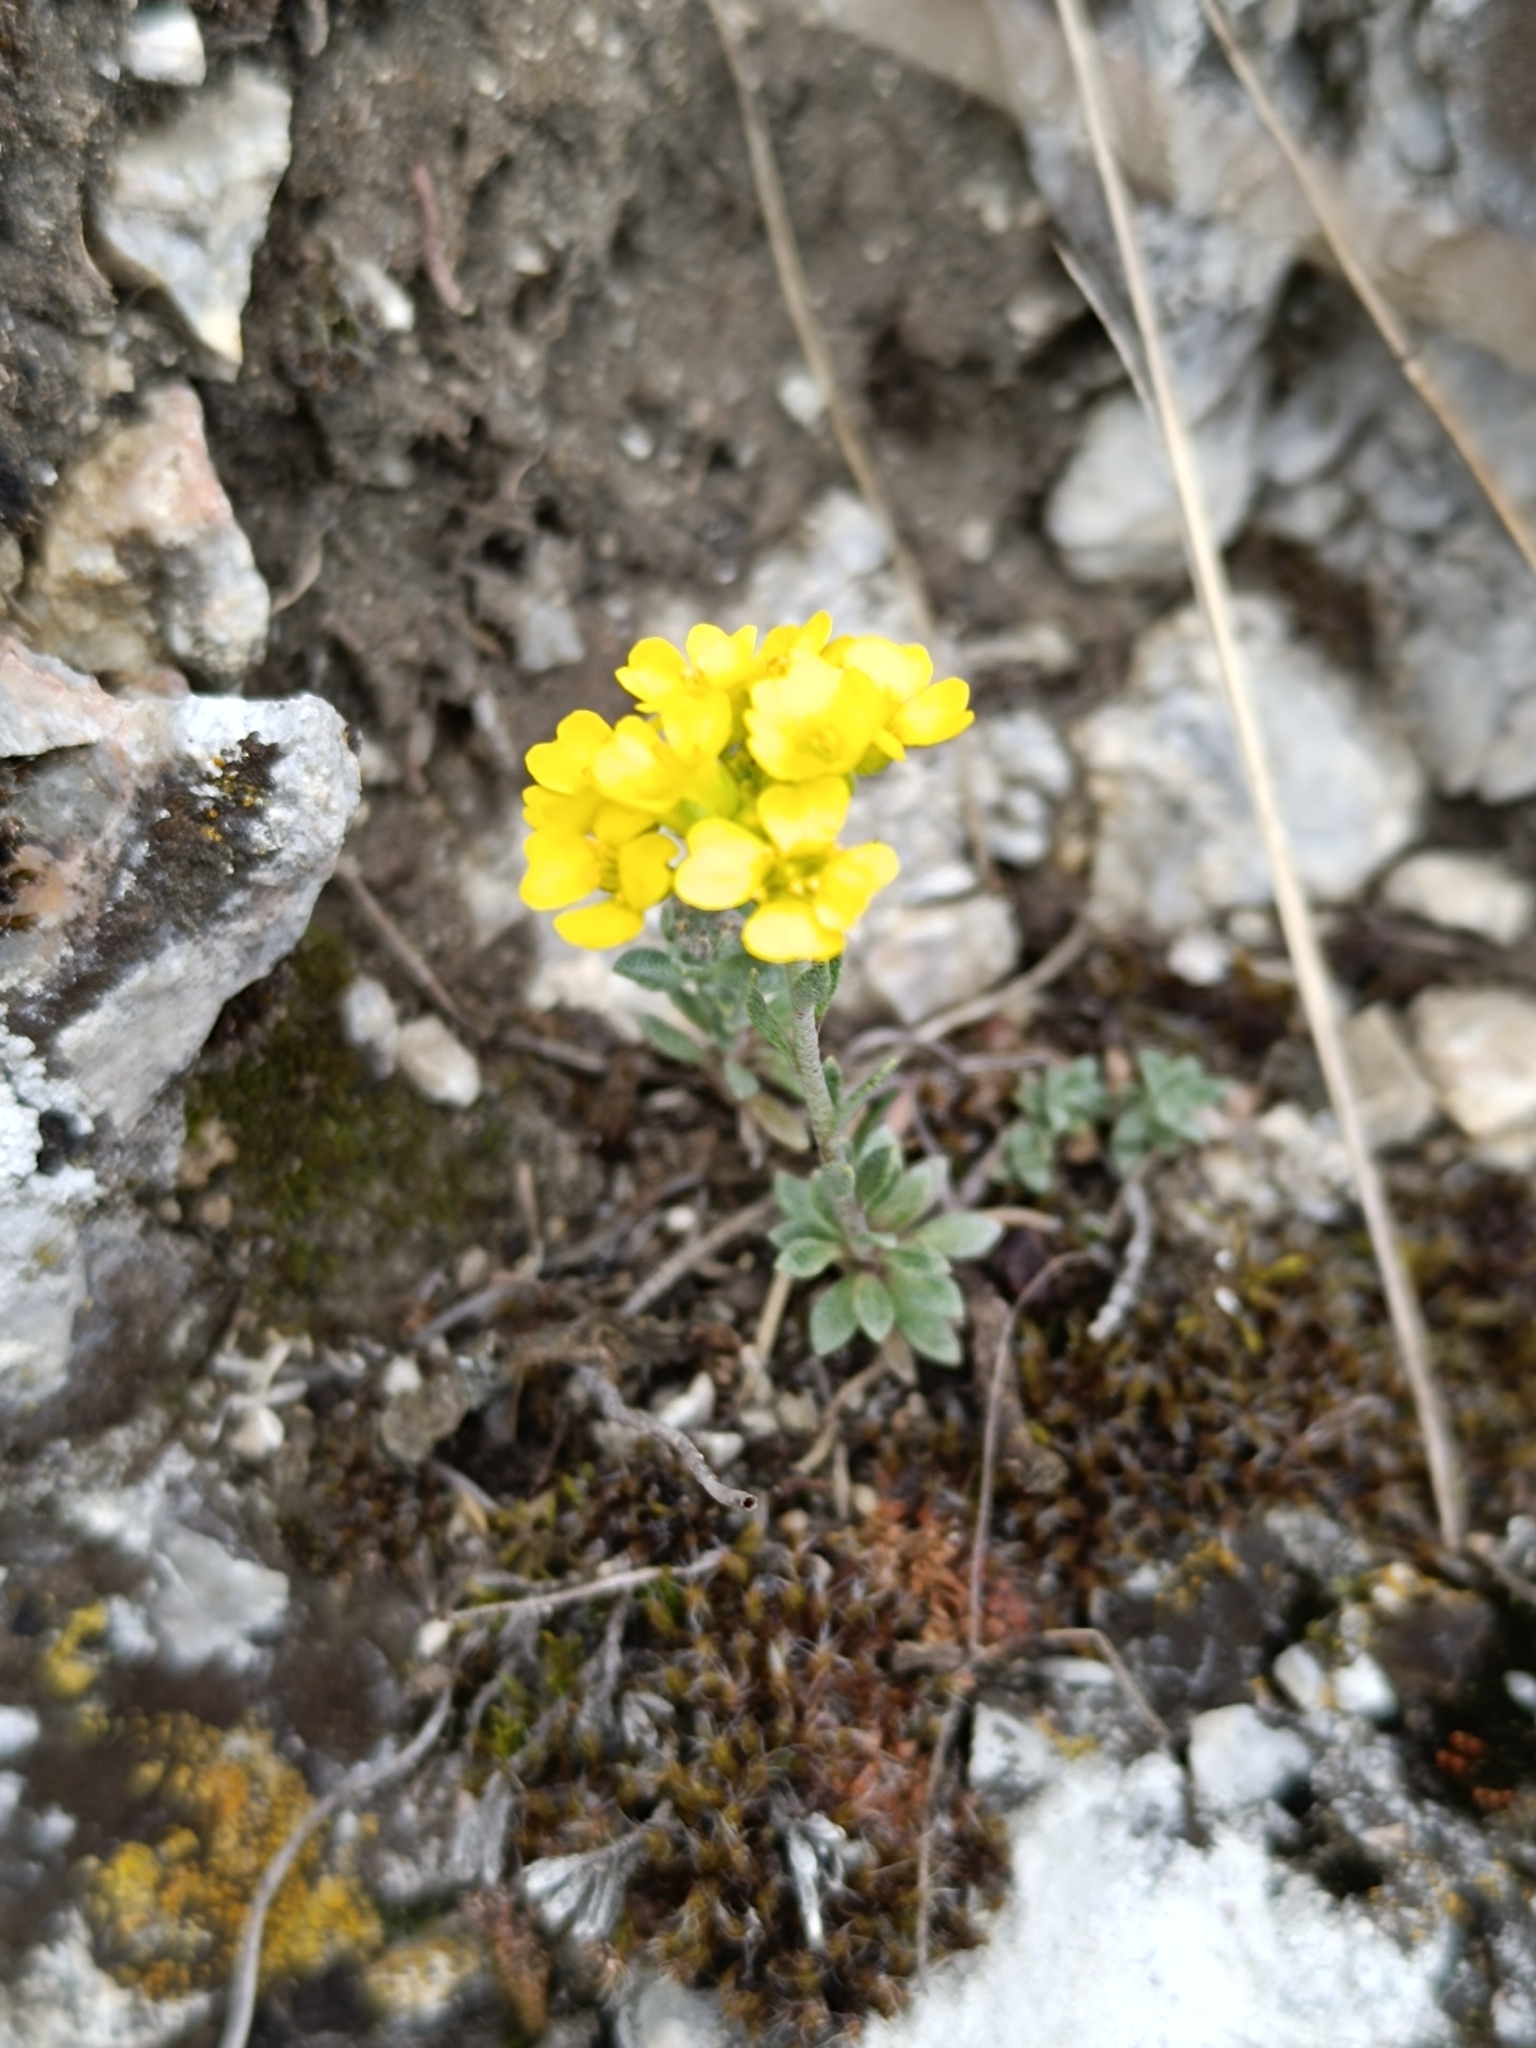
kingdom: Plantae
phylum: Tracheophyta
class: Magnoliopsida
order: Brassicales
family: Brassicaceae
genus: Alyssum
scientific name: Alyssum gmelinii
